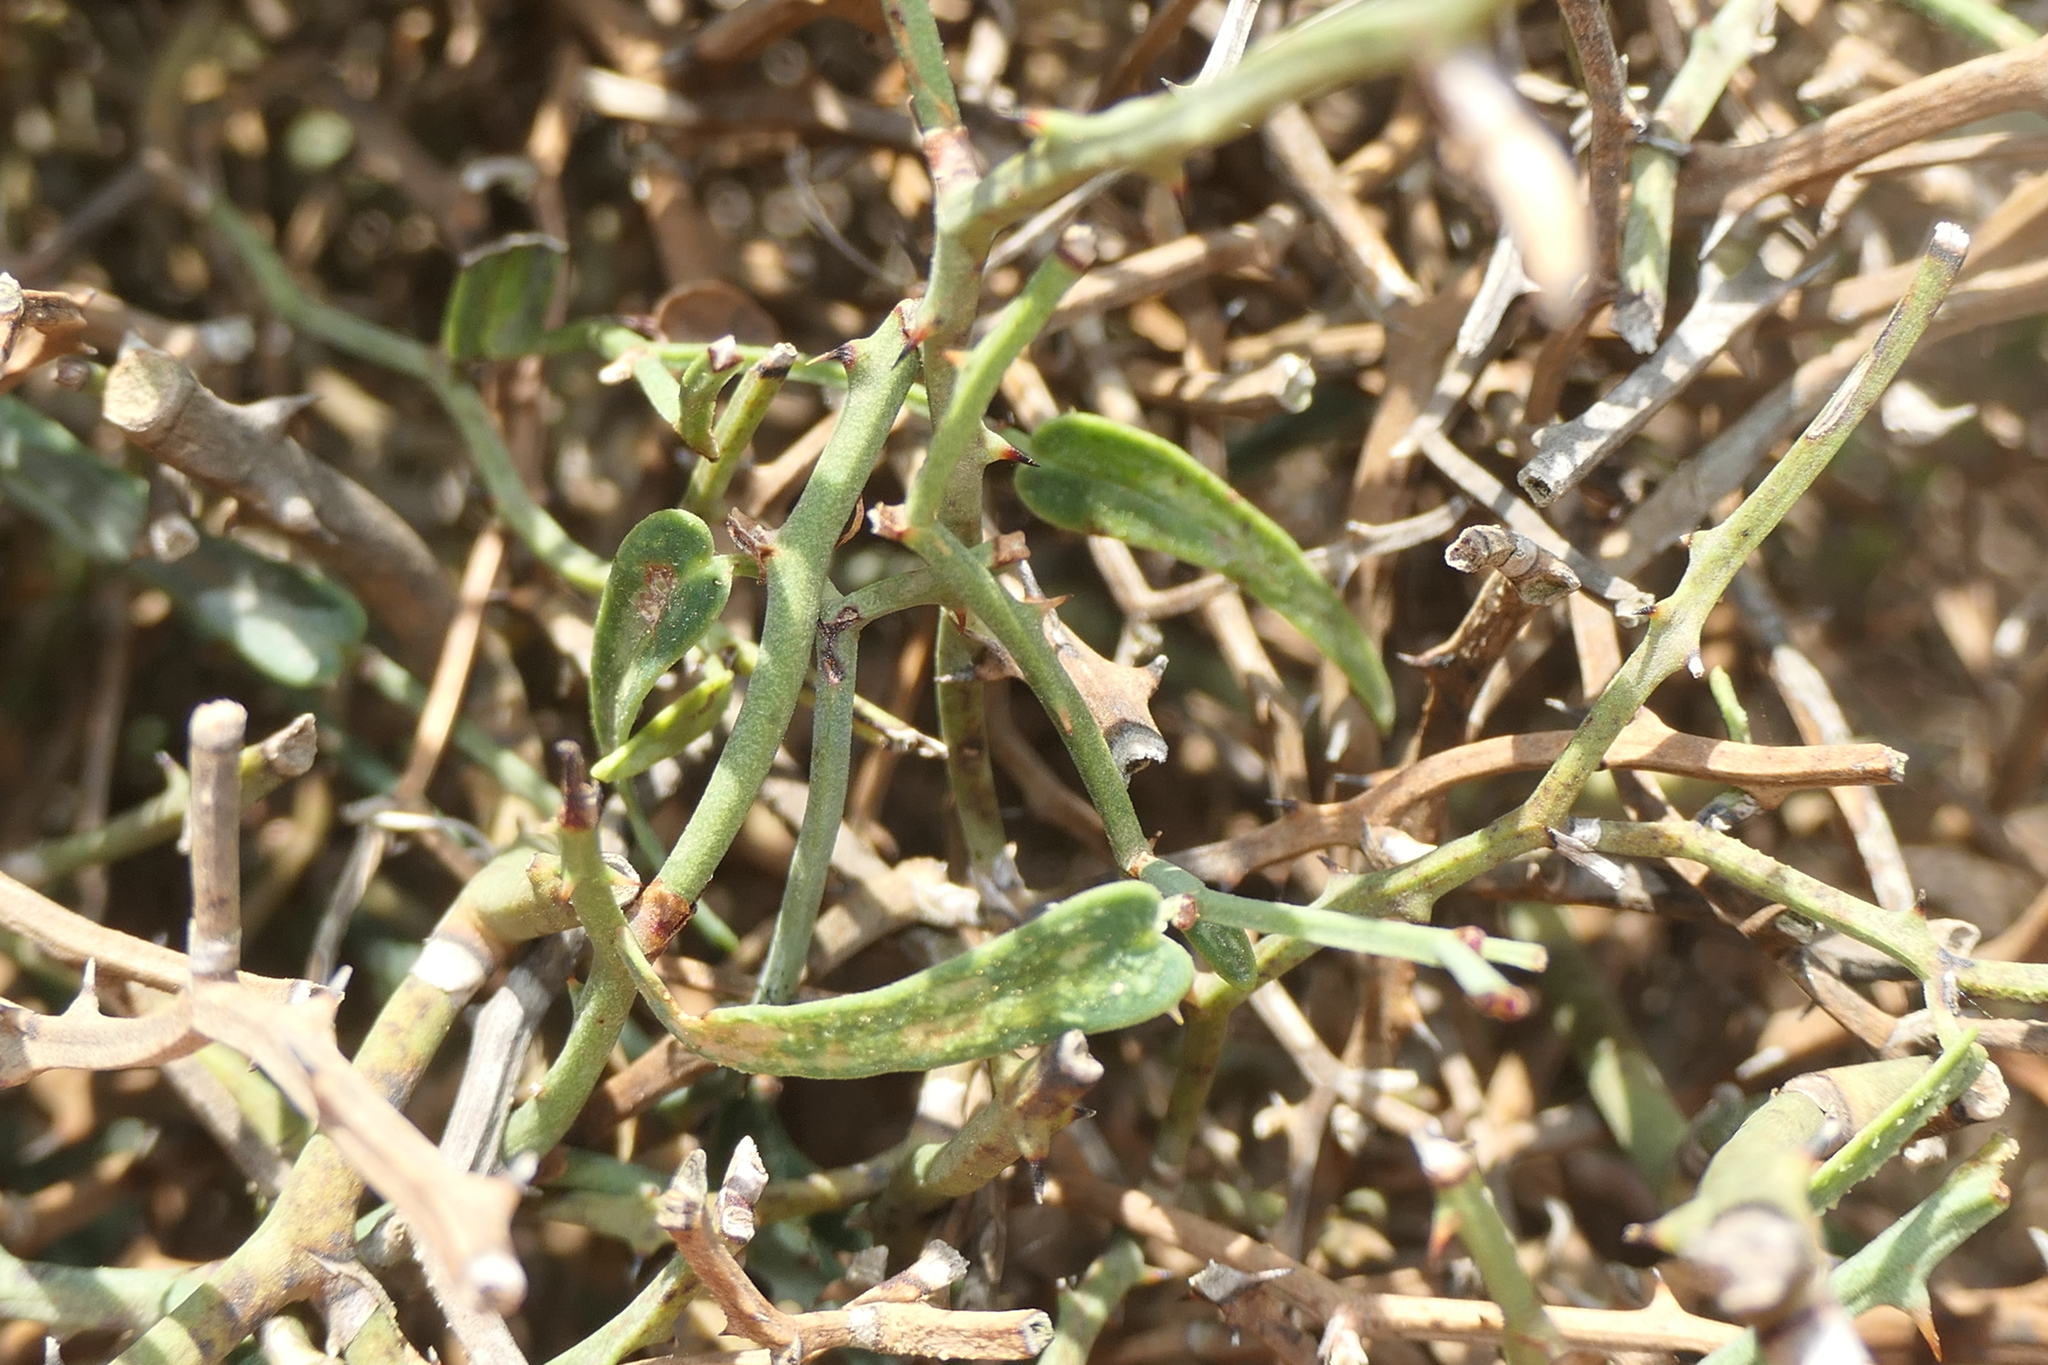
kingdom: Plantae
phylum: Tracheophyta
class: Liliopsida
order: Liliales
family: Smilacaceae
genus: Smilax
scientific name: Smilax aspera
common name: Common smilax
